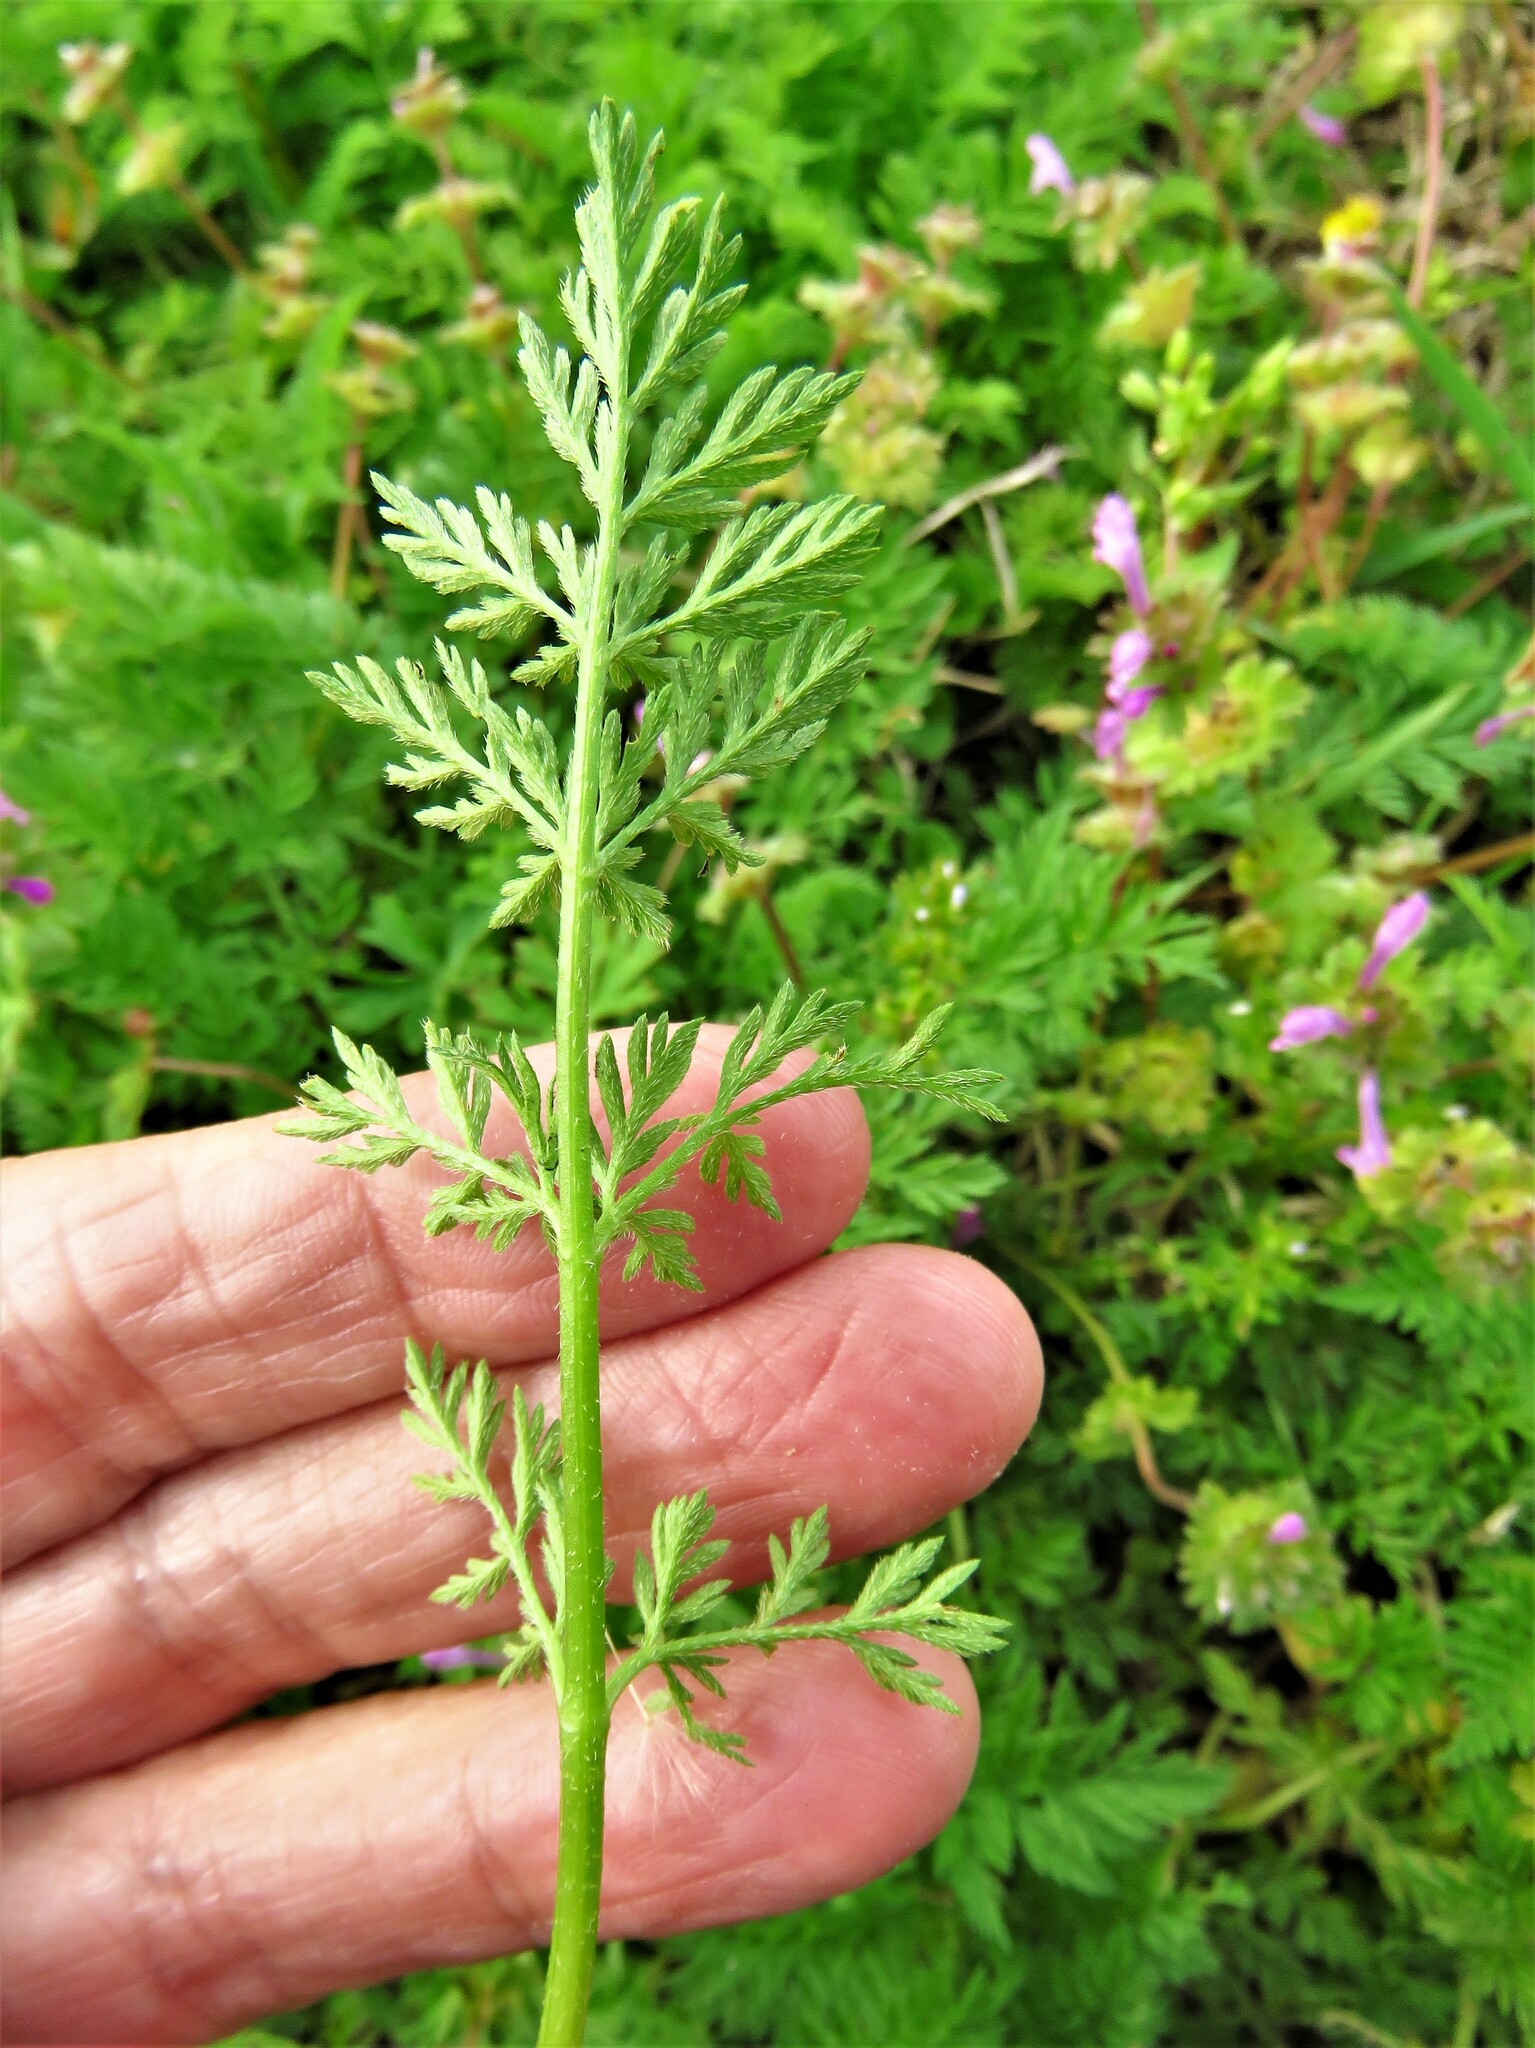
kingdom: Plantae
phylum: Tracheophyta
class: Magnoliopsida
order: Apiales
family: Apiaceae
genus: Torilis
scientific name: Torilis nodosa
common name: Knotted hedge-parsley
